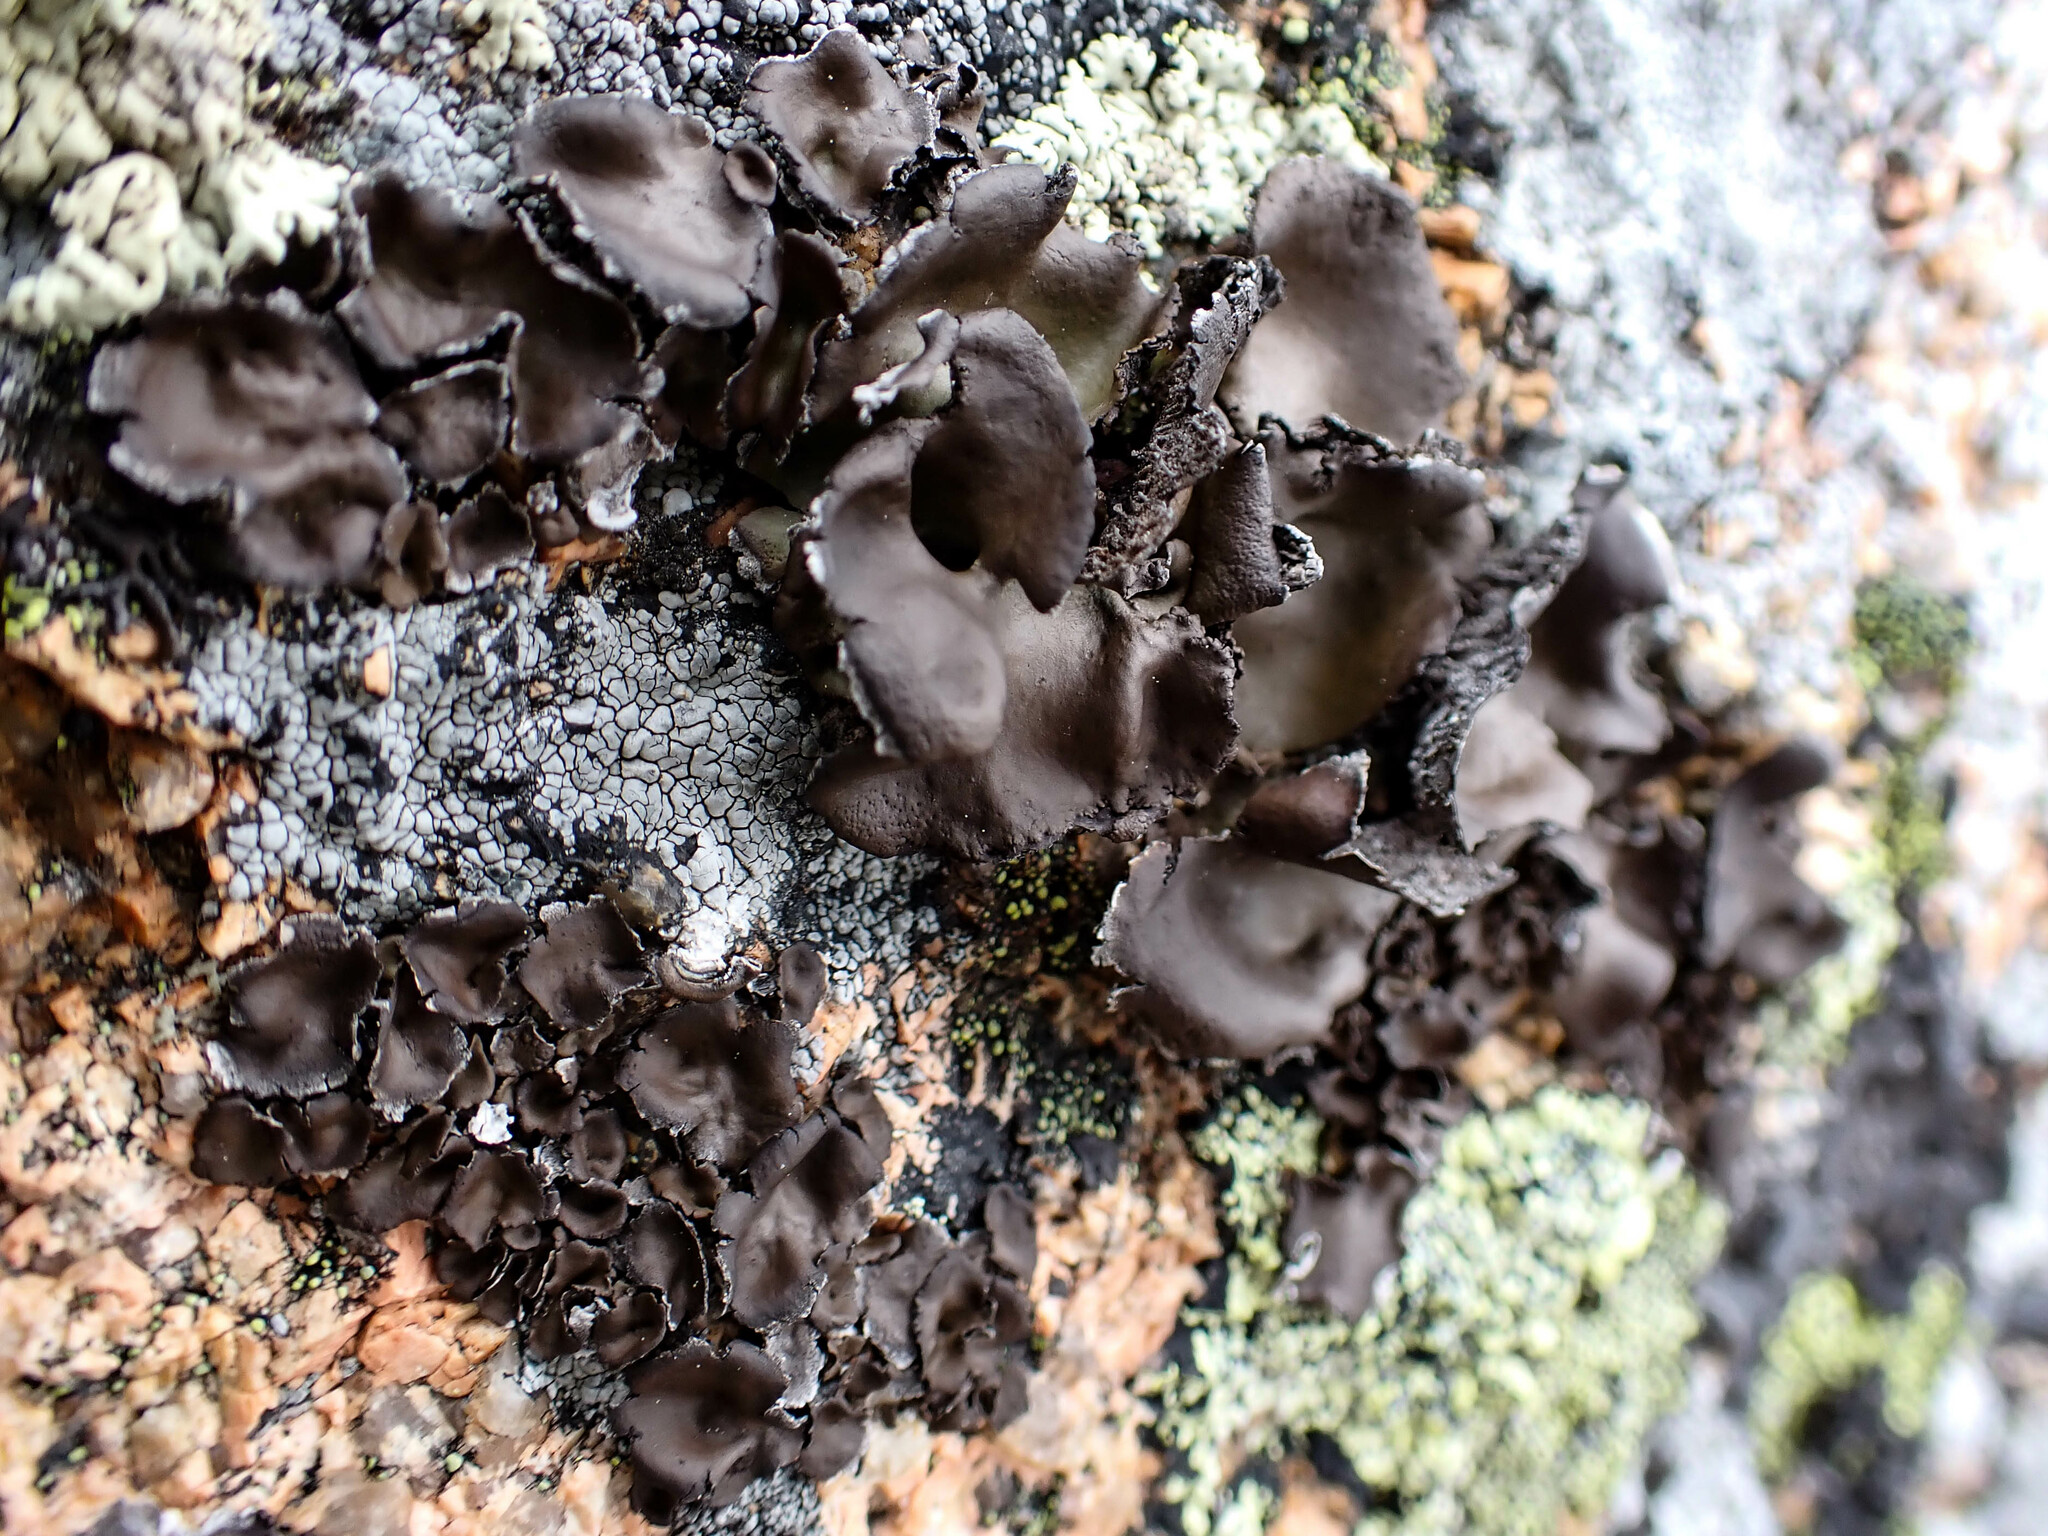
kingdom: Fungi
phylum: Ascomycota
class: Lecanoromycetes
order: Umbilicariales
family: Umbilicariaceae
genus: Umbilicaria
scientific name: Umbilicaria muhlenbergii
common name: Lesser rocktripe
